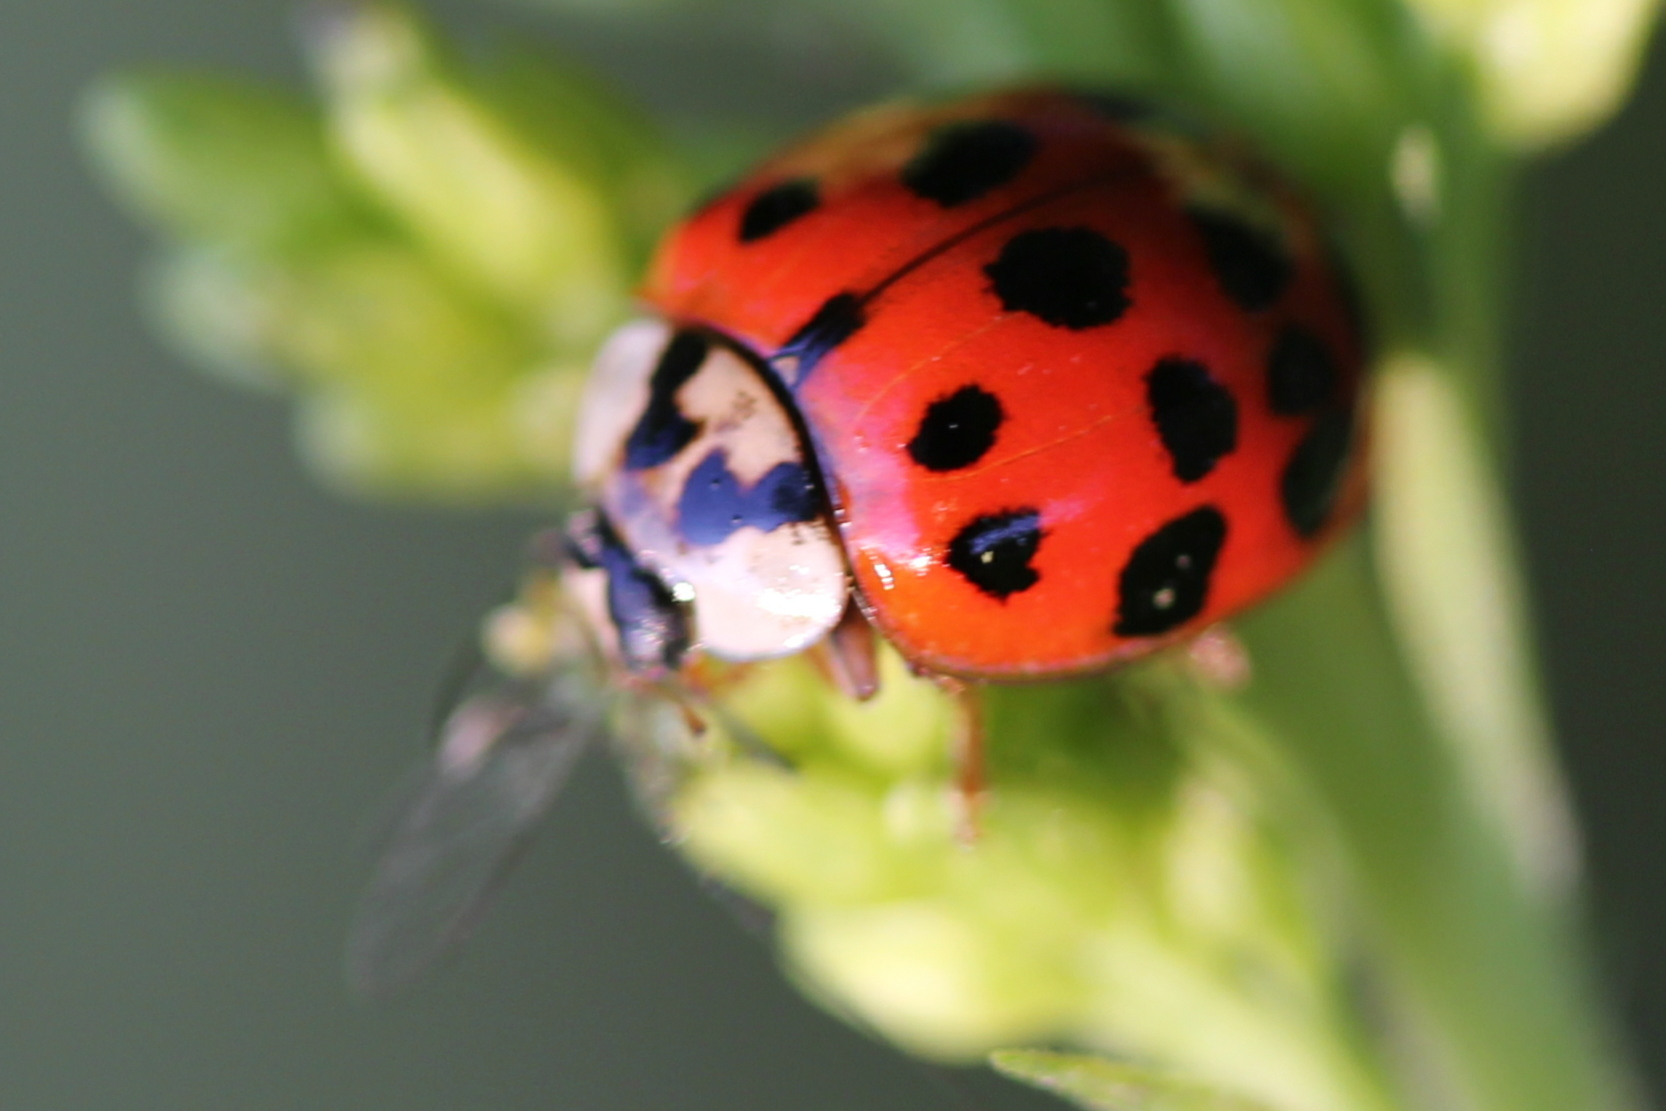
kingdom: Animalia
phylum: Arthropoda
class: Insecta
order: Coleoptera
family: Coccinellidae
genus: Harmonia
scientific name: Harmonia axyridis
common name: Harlequin ladybird
